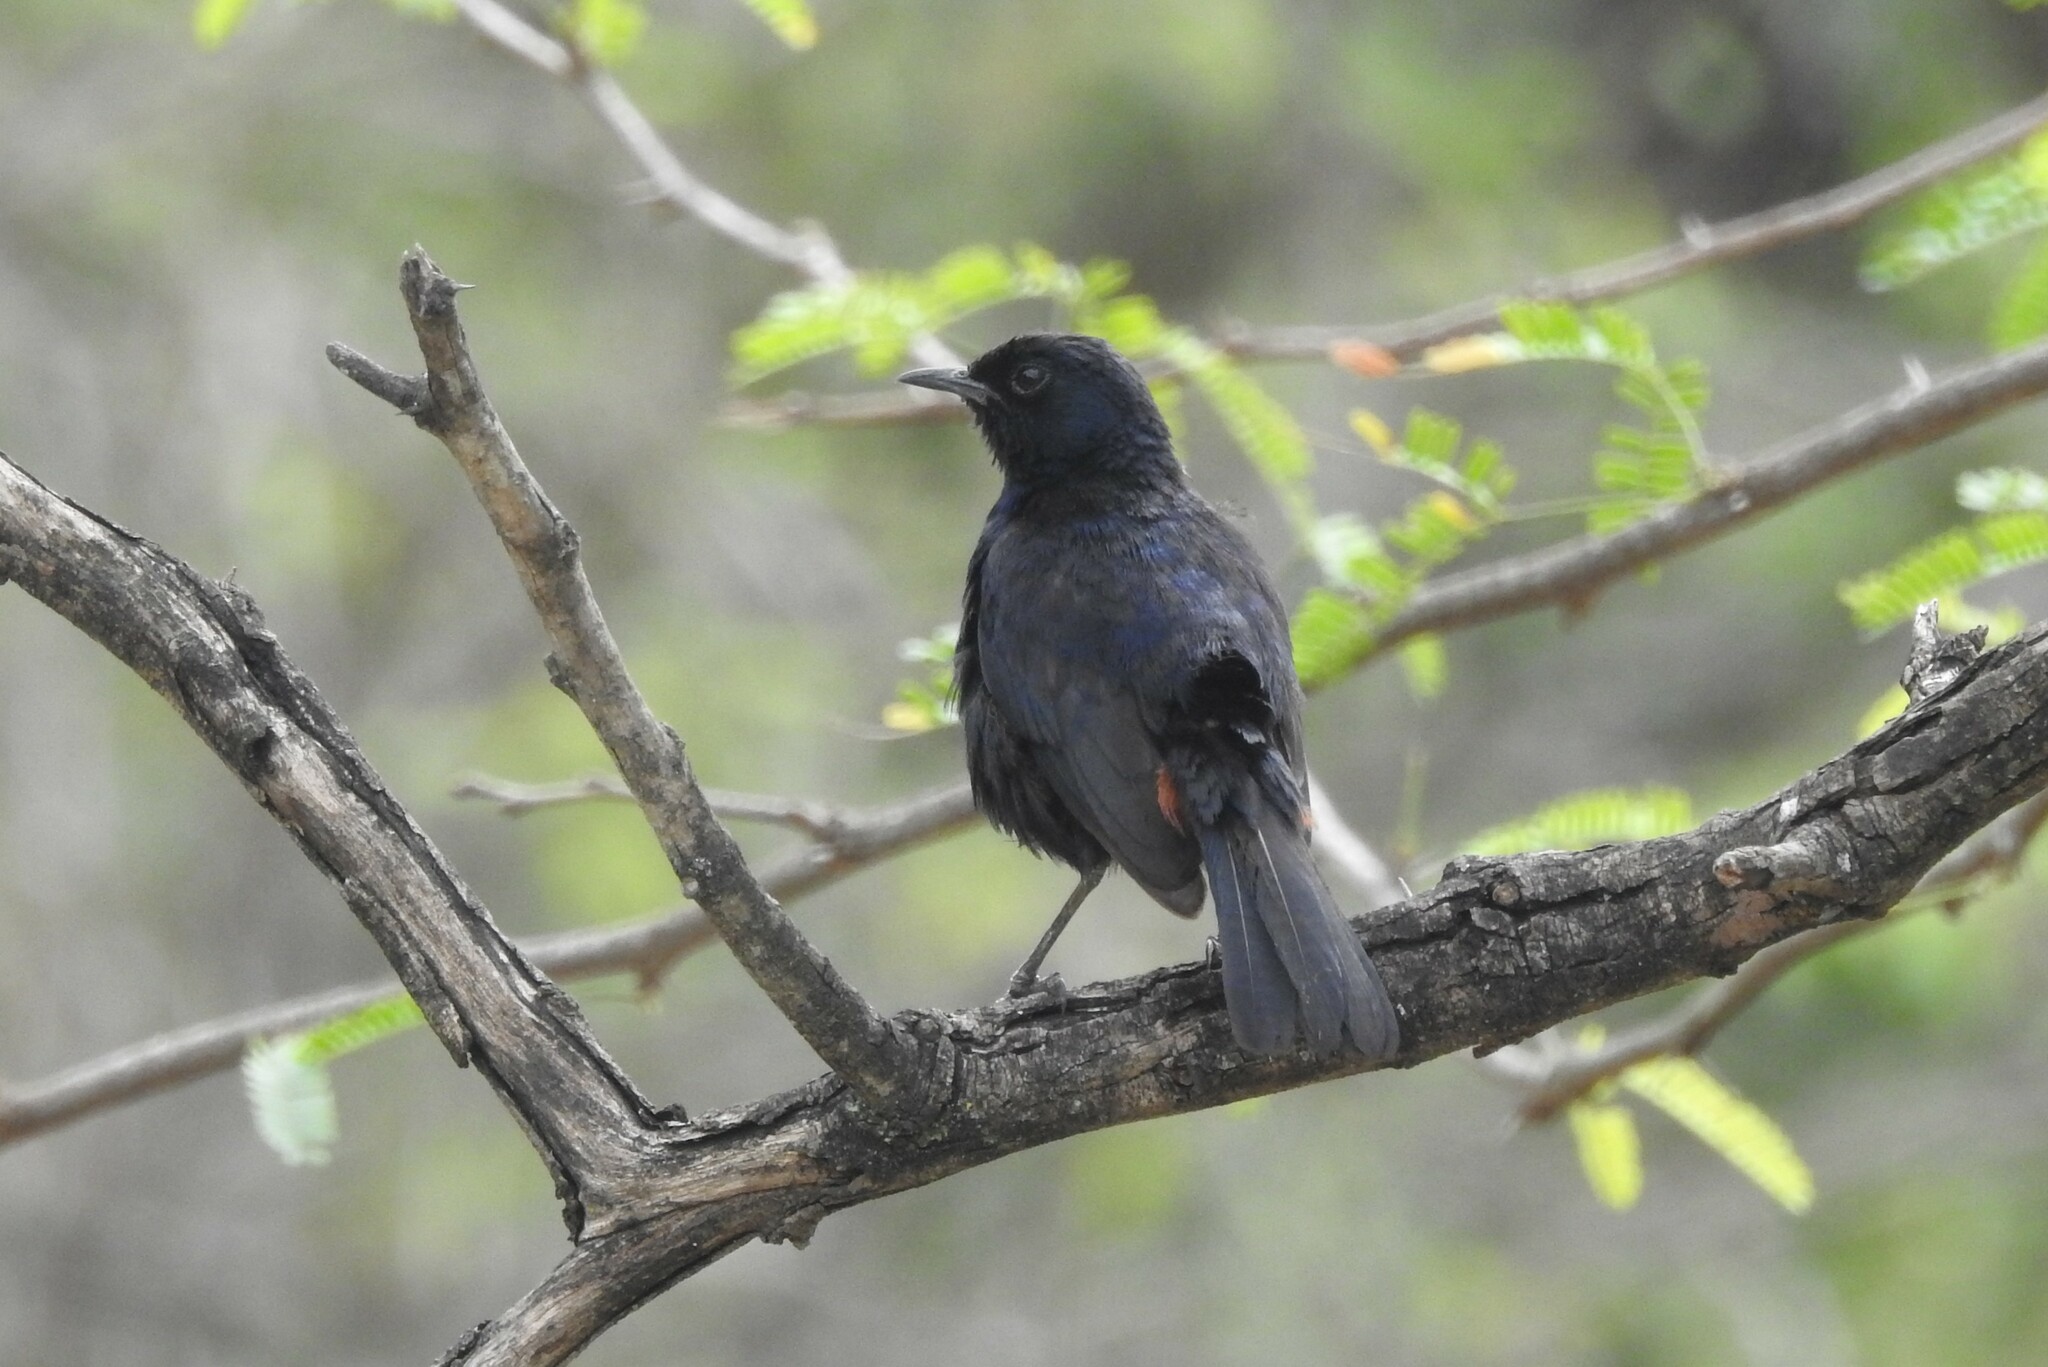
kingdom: Animalia
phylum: Chordata
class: Aves
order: Passeriformes
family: Muscicapidae
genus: Saxicoloides
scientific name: Saxicoloides fulicatus
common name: Indian robin
